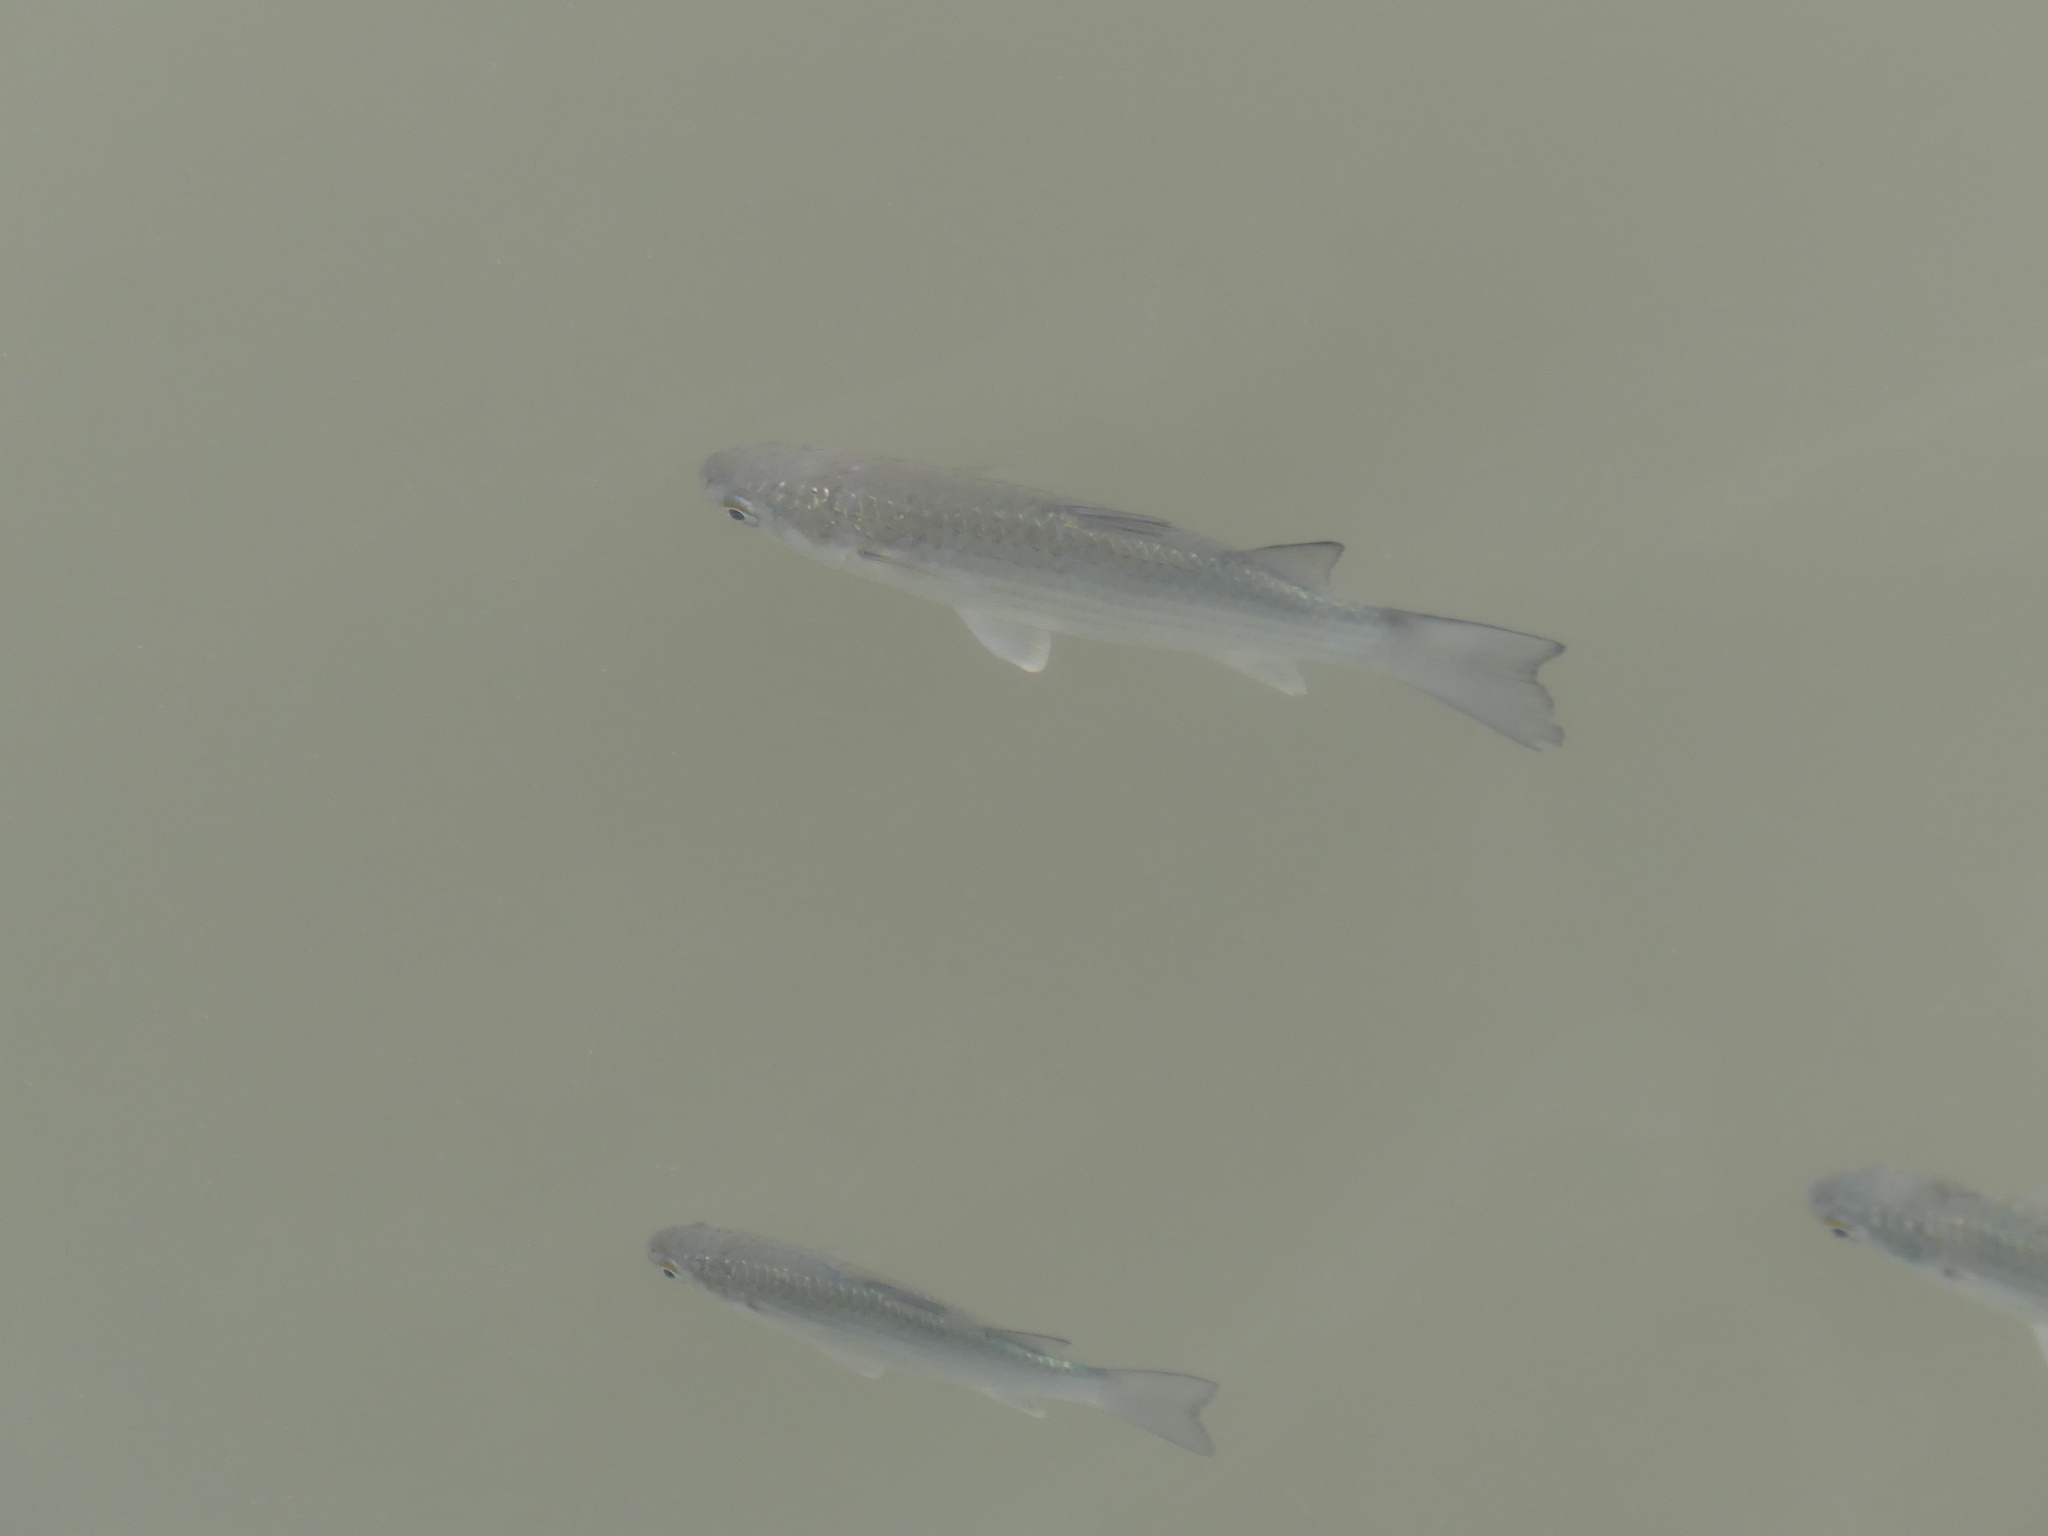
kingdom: Animalia
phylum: Chordata
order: Mugiliformes
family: Mugilidae
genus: Planiliza
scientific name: Planiliza subviridis
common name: Greenback mullet
